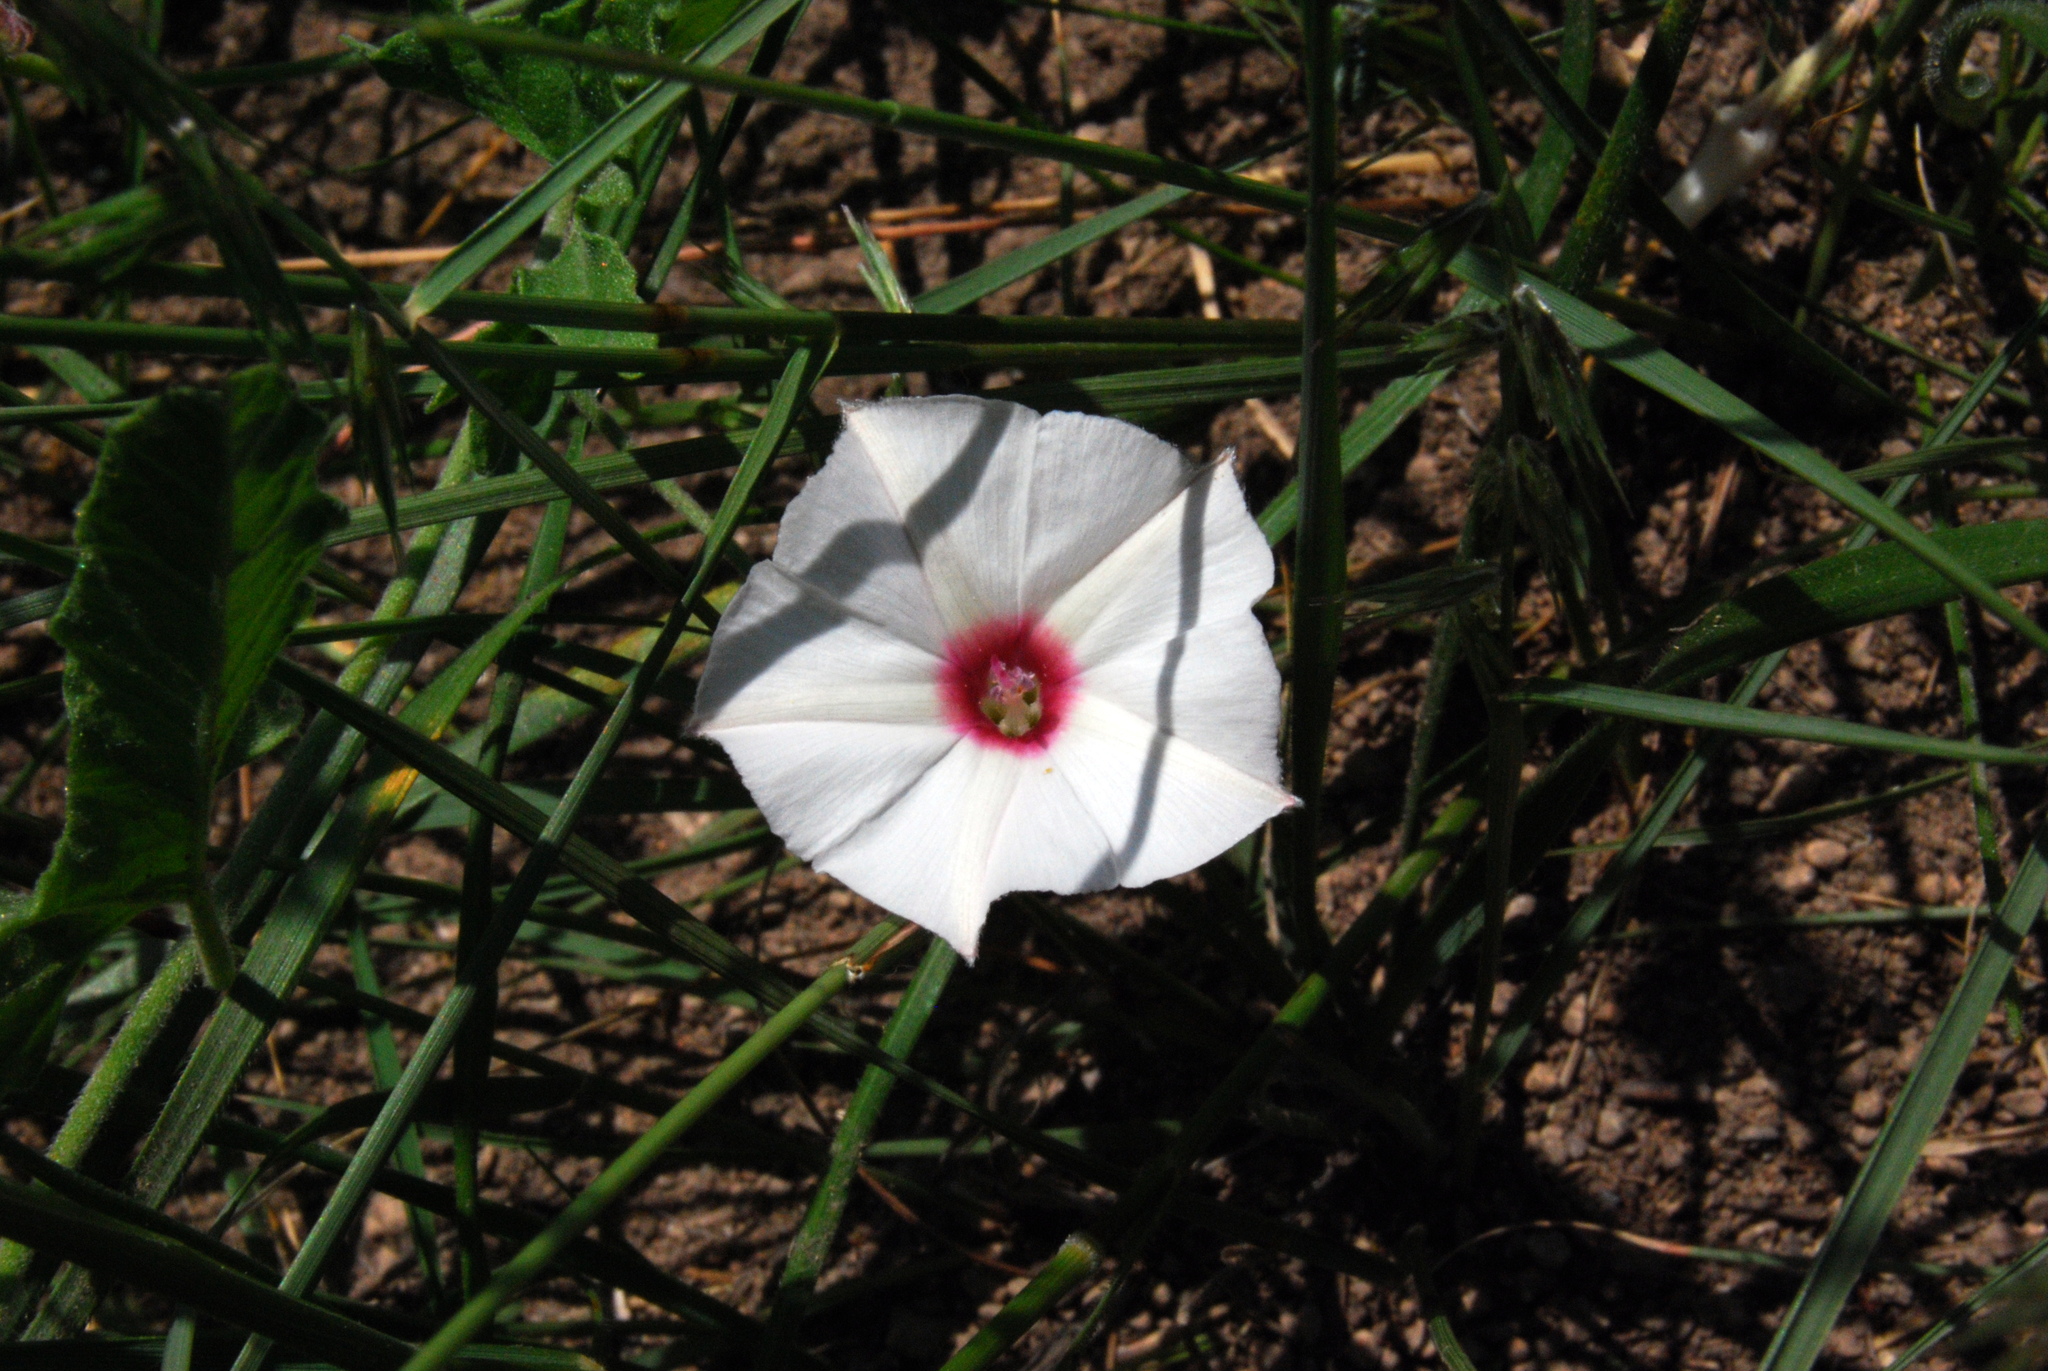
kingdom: Plantae
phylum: Tracheophyta
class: Magnoliopsida
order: Solanales
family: Convolvulaceae
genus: Convolvulus
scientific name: Convolvulus equitans
